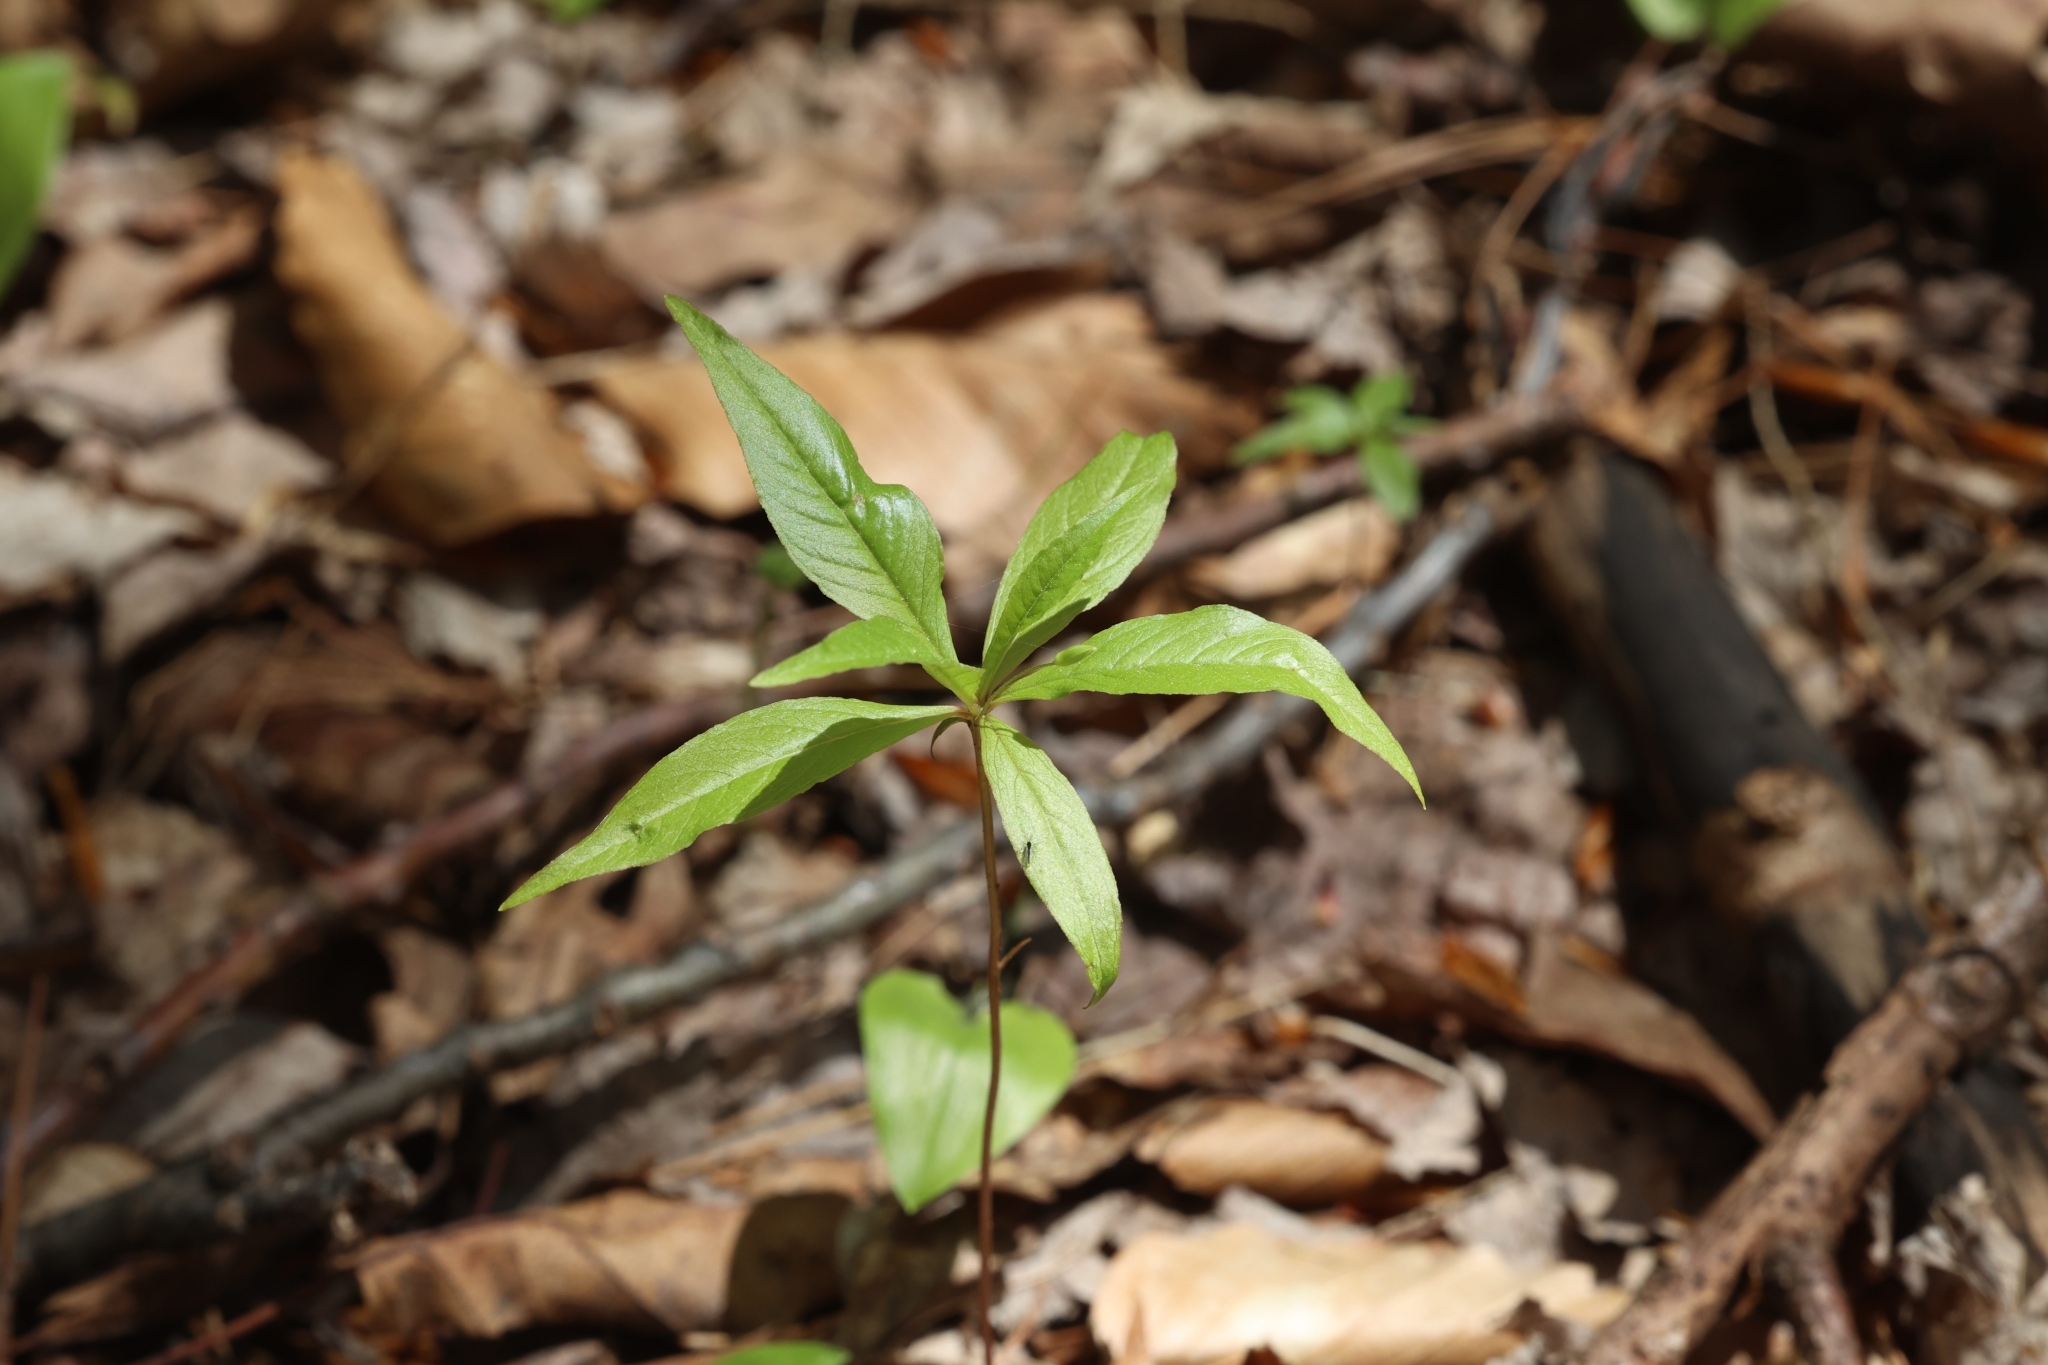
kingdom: Plantae
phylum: Tracheophyta
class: Magnoliopsida
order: Ericales
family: Primulaceae
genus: Lysimachia
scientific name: Lysimachia borealis
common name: American starflower
